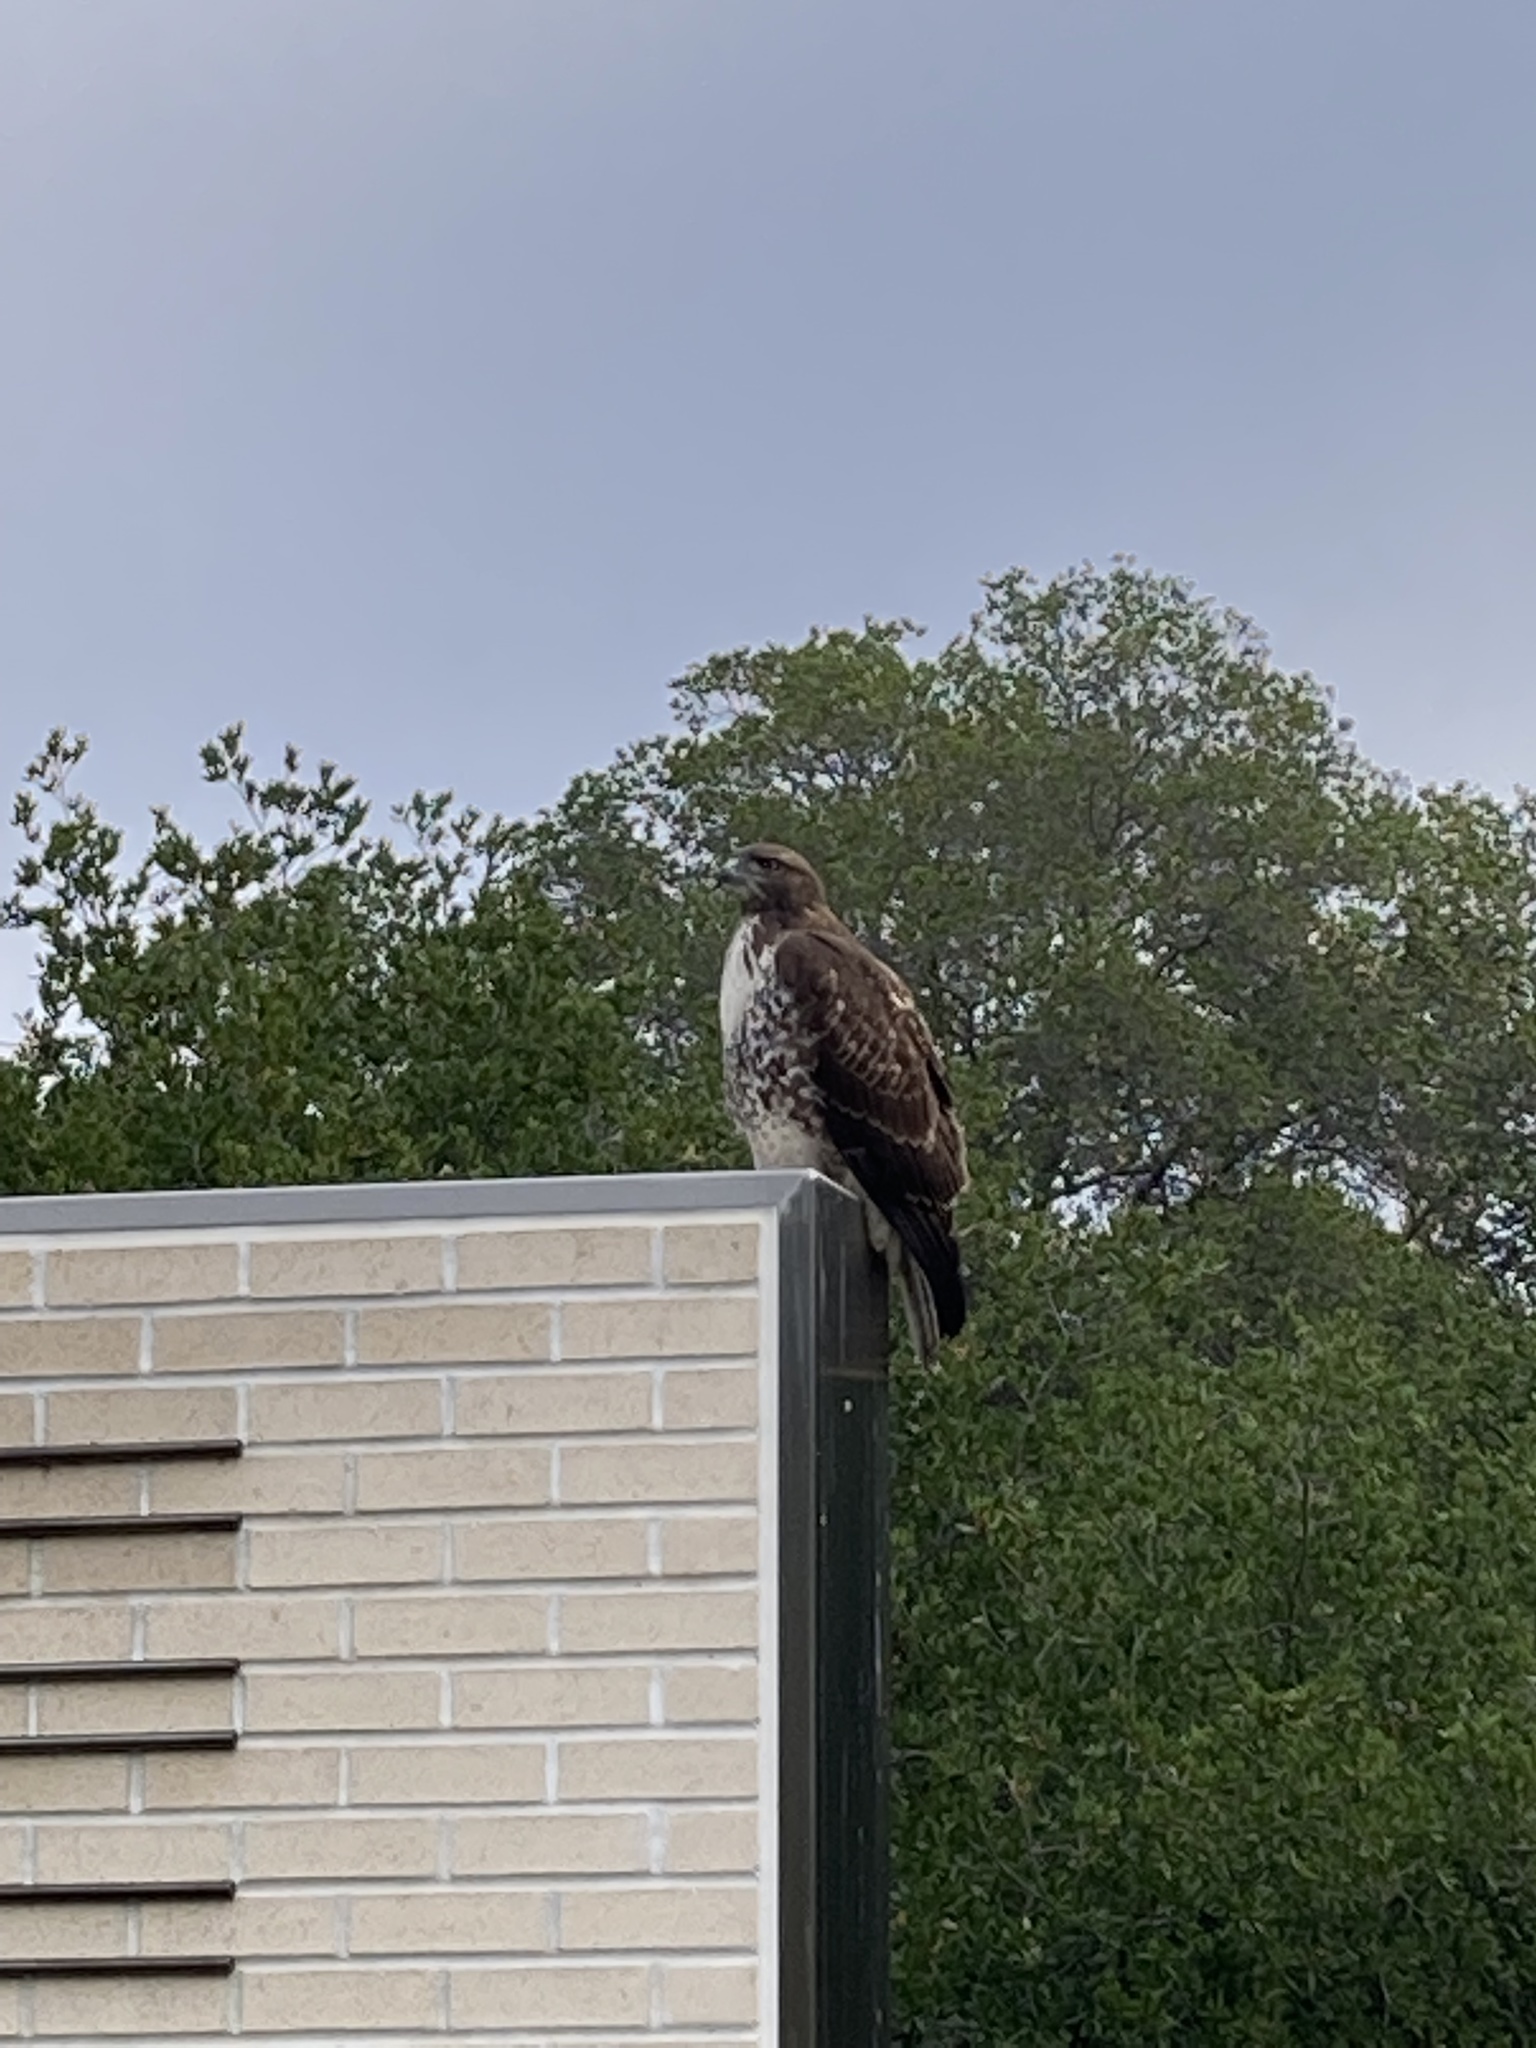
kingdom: Animalia
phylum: Chordata
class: Aves
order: Accipitriformes
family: Accipitridae
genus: Buteo
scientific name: Buteo jamaicensis
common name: Red-tailed hawk
